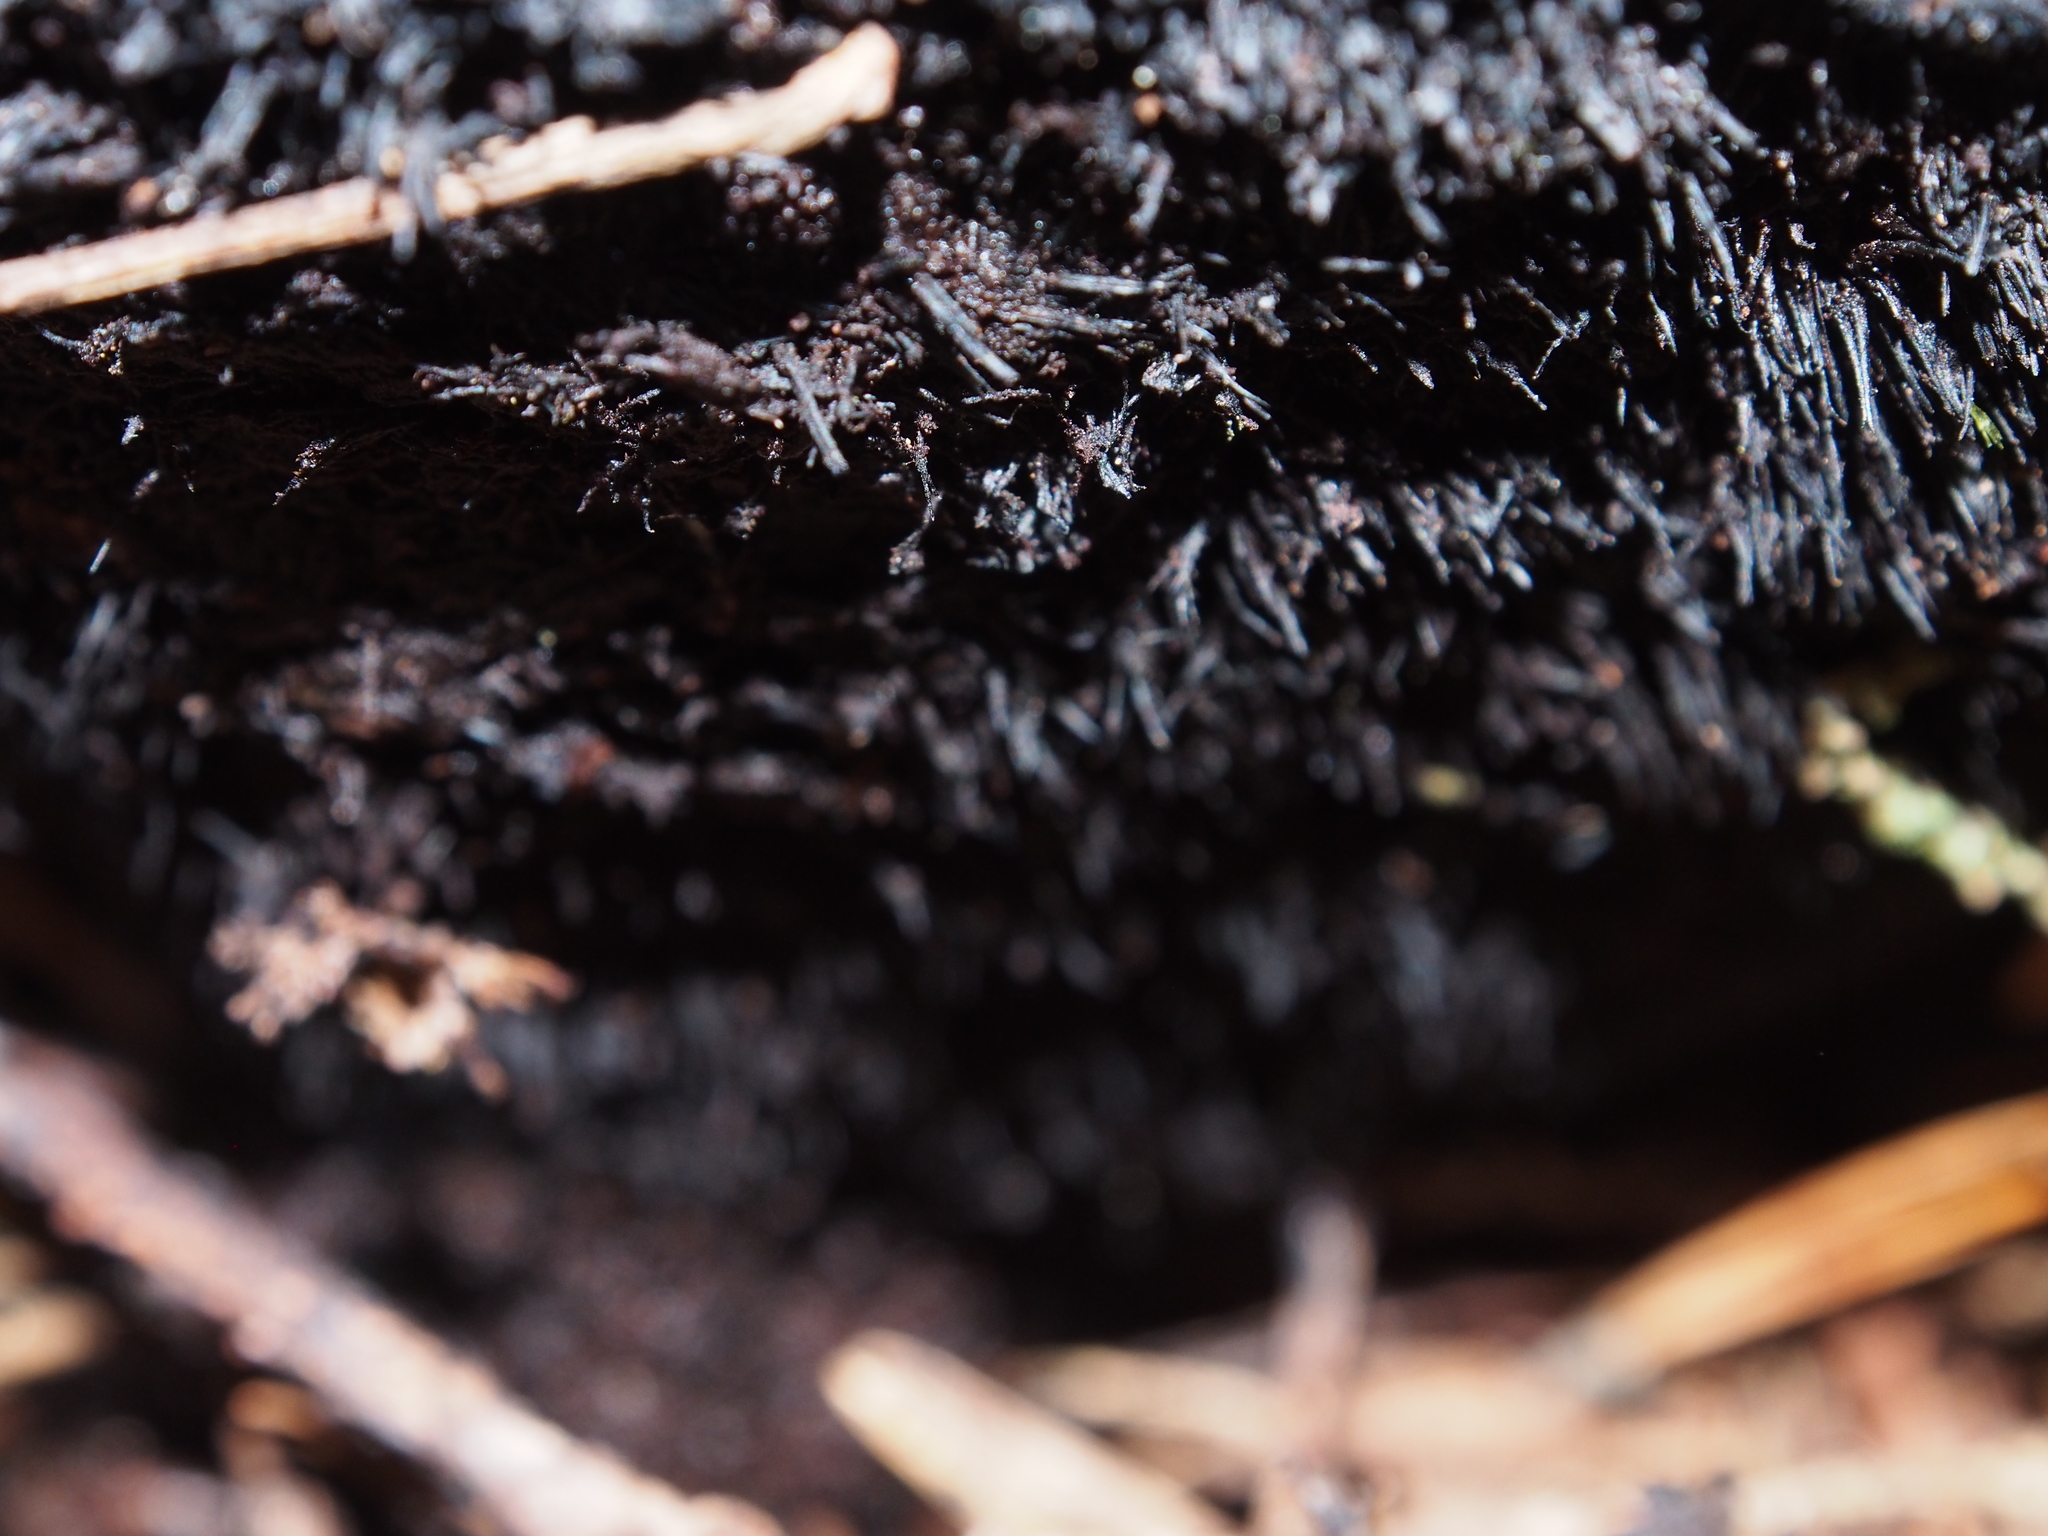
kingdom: Fungi
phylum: Basidiomycota
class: Agaricomycetes
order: Polyporales
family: Laetiporaceae
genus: Phaeolus
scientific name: Phaeolus schweinitzii
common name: Dyer's mazegill
